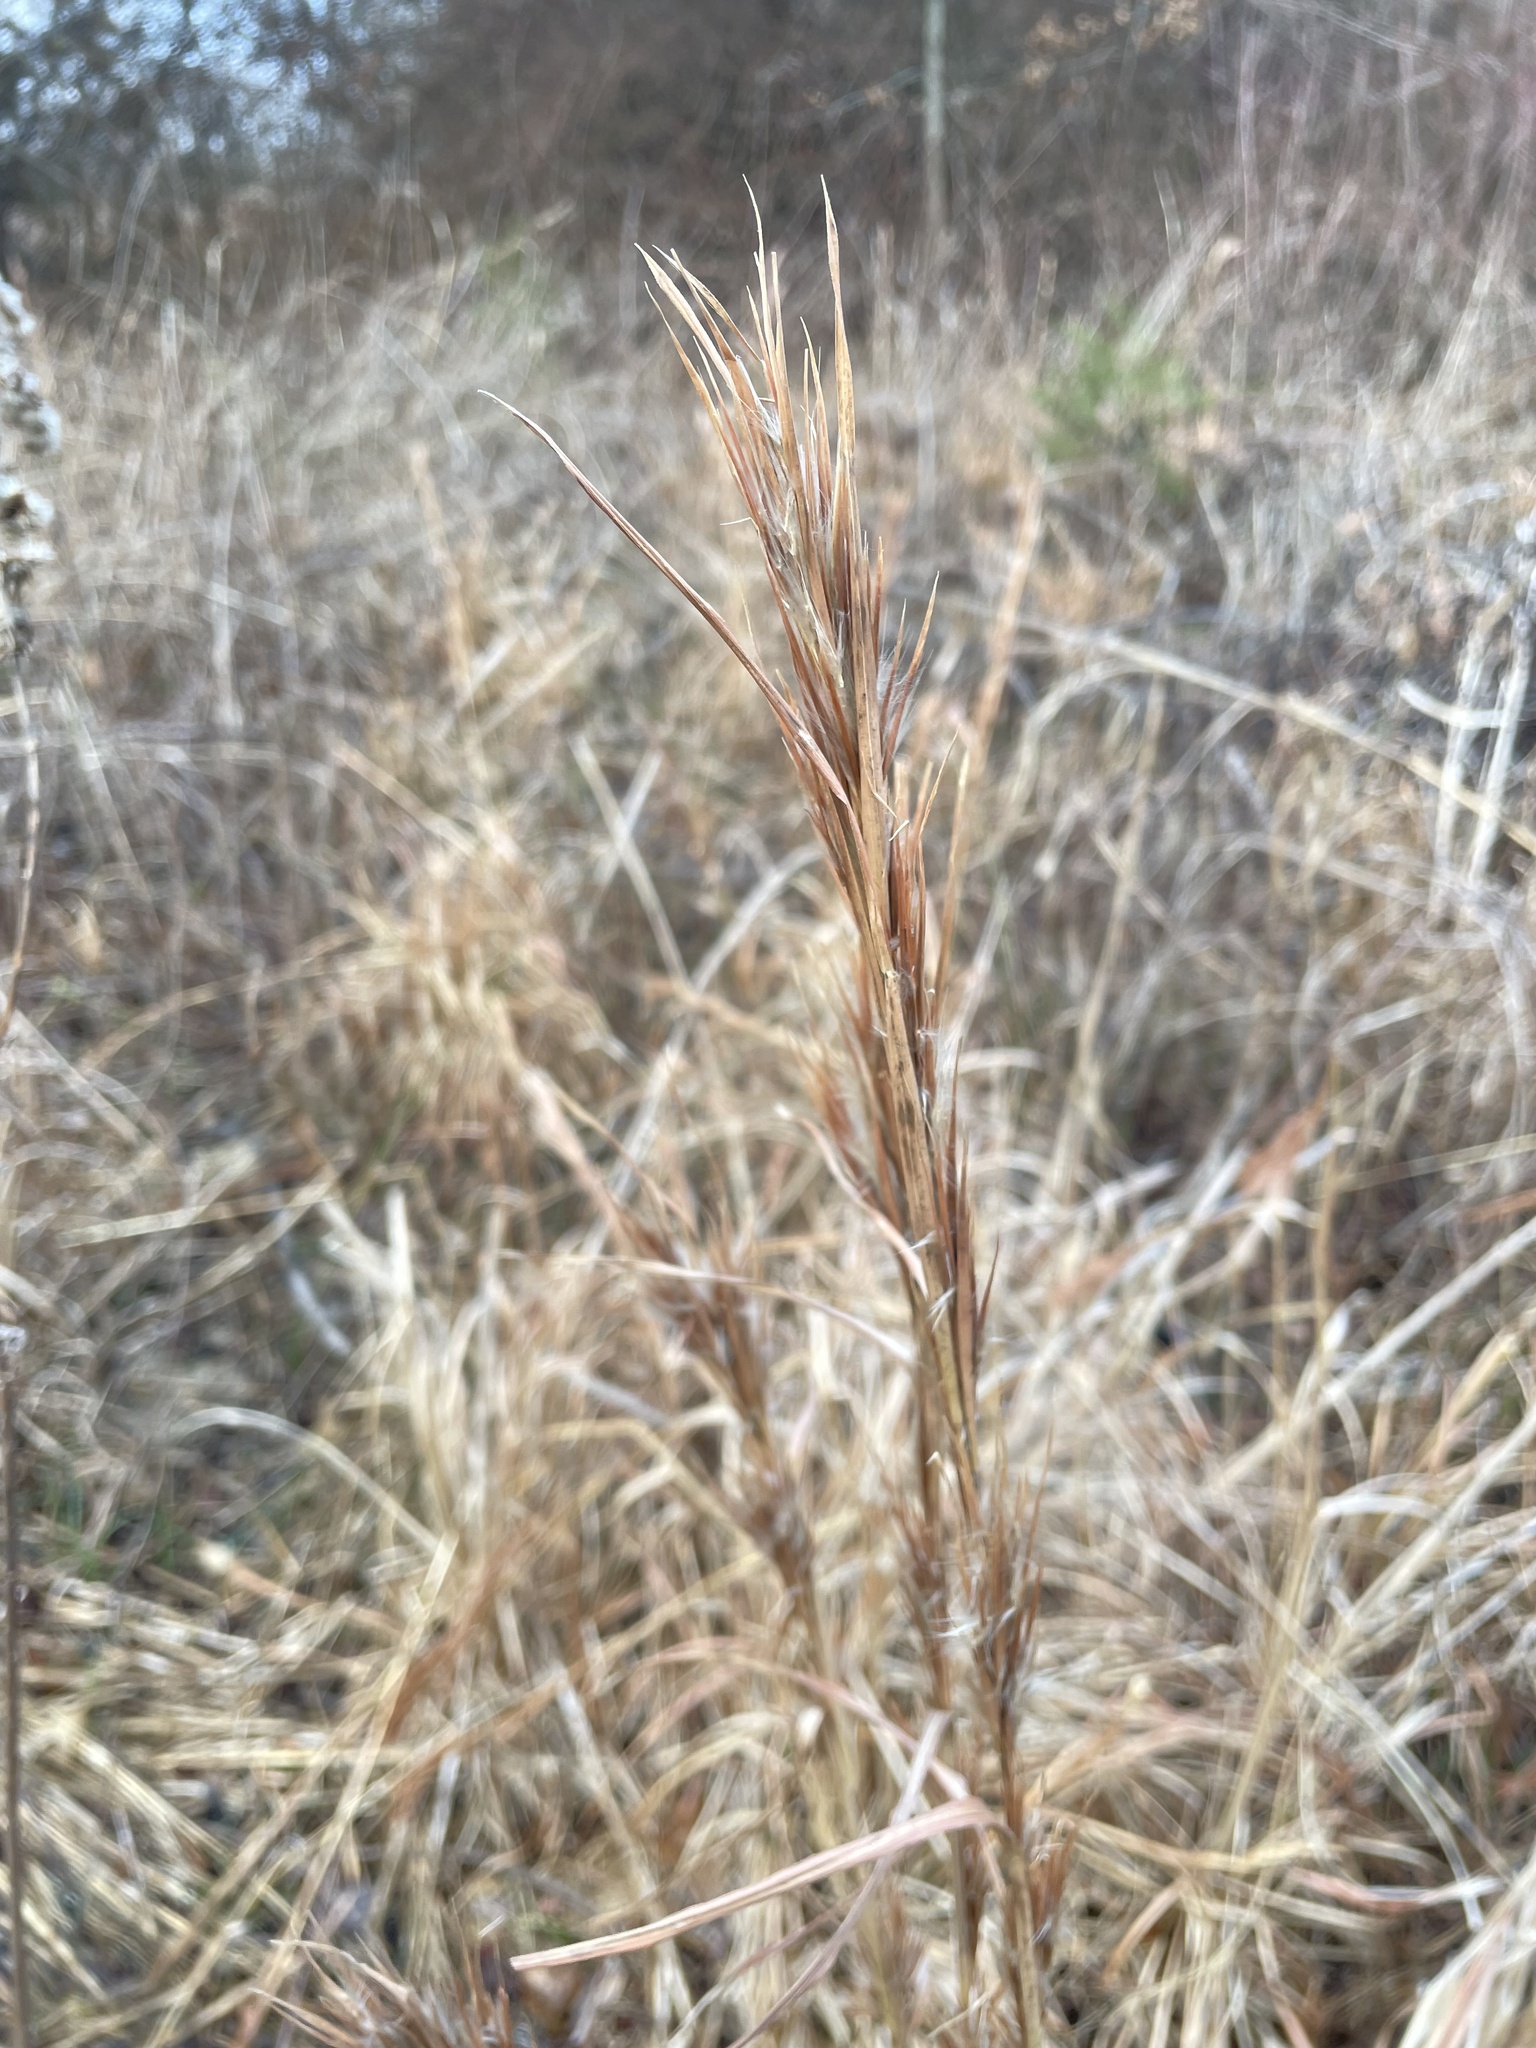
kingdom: Plantae
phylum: Tracheophyta
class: Liliopsida
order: Poales
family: Poaceae
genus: Andropogon
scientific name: Andropogon tenuispatheus
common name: Bushy bluestem
